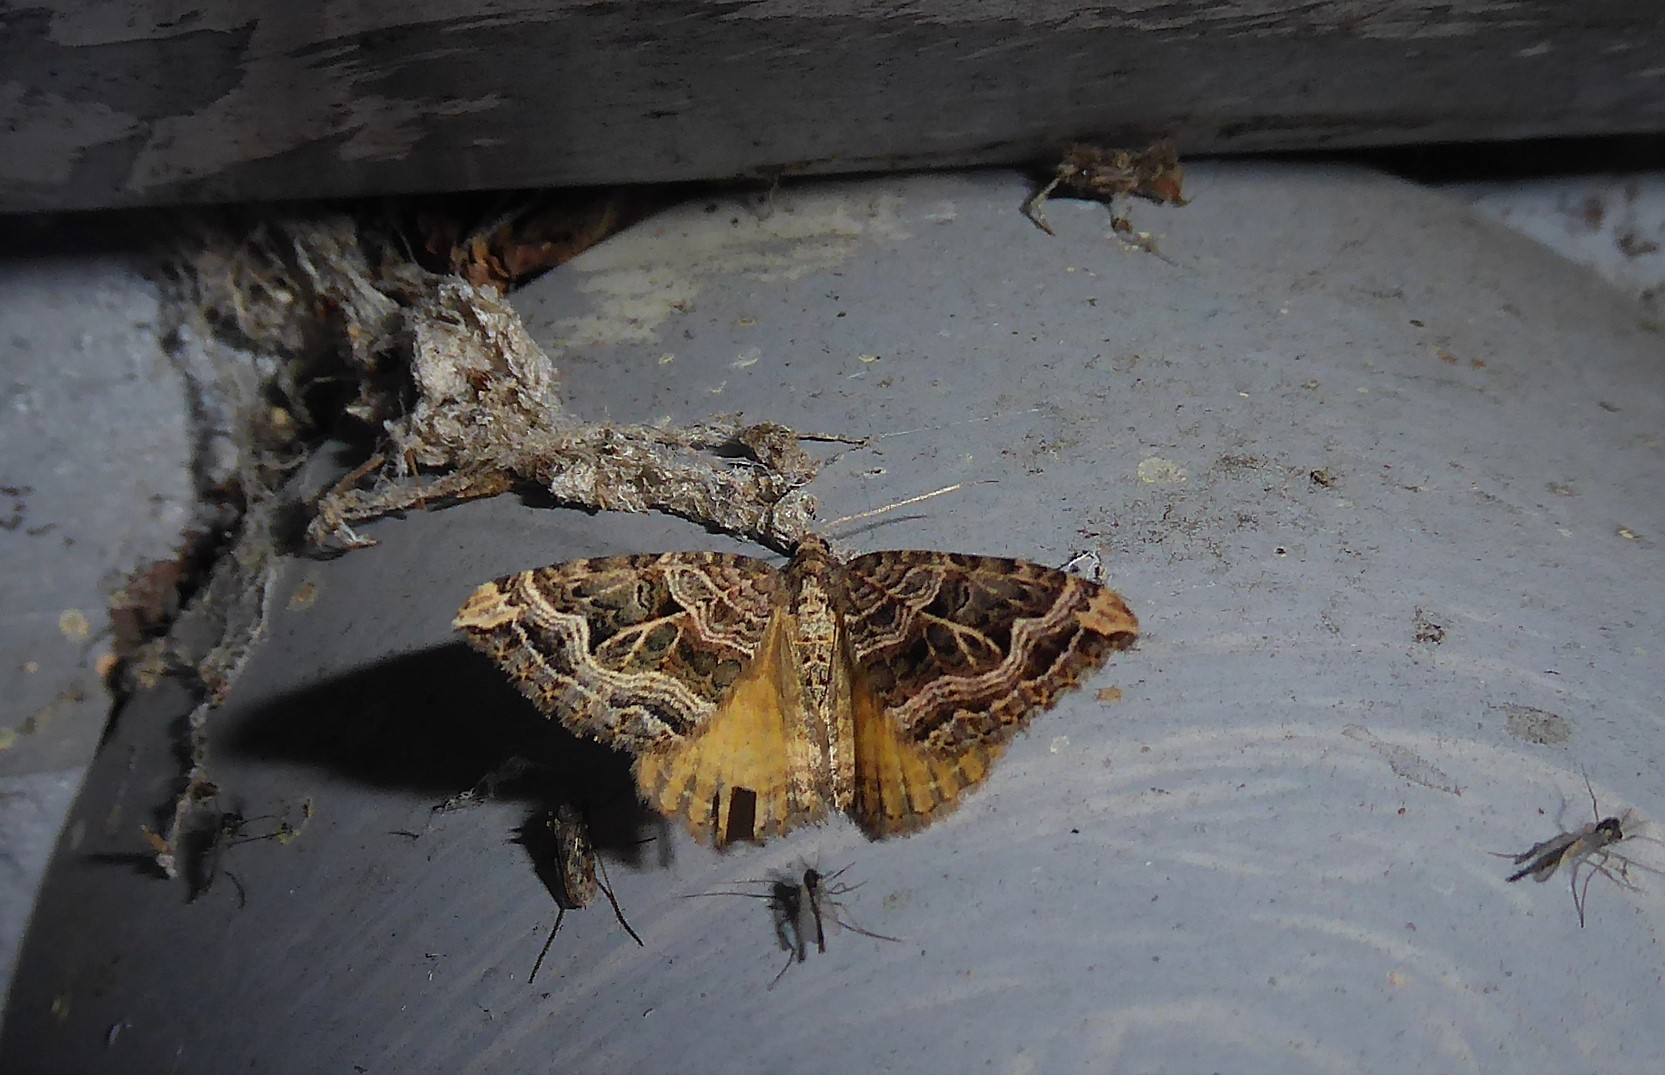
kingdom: Animalia
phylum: Arthropoda
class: Insecta
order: Lepidoptera
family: Geometridae
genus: Xanthorhoe
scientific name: Xanthorhoe semifissata
